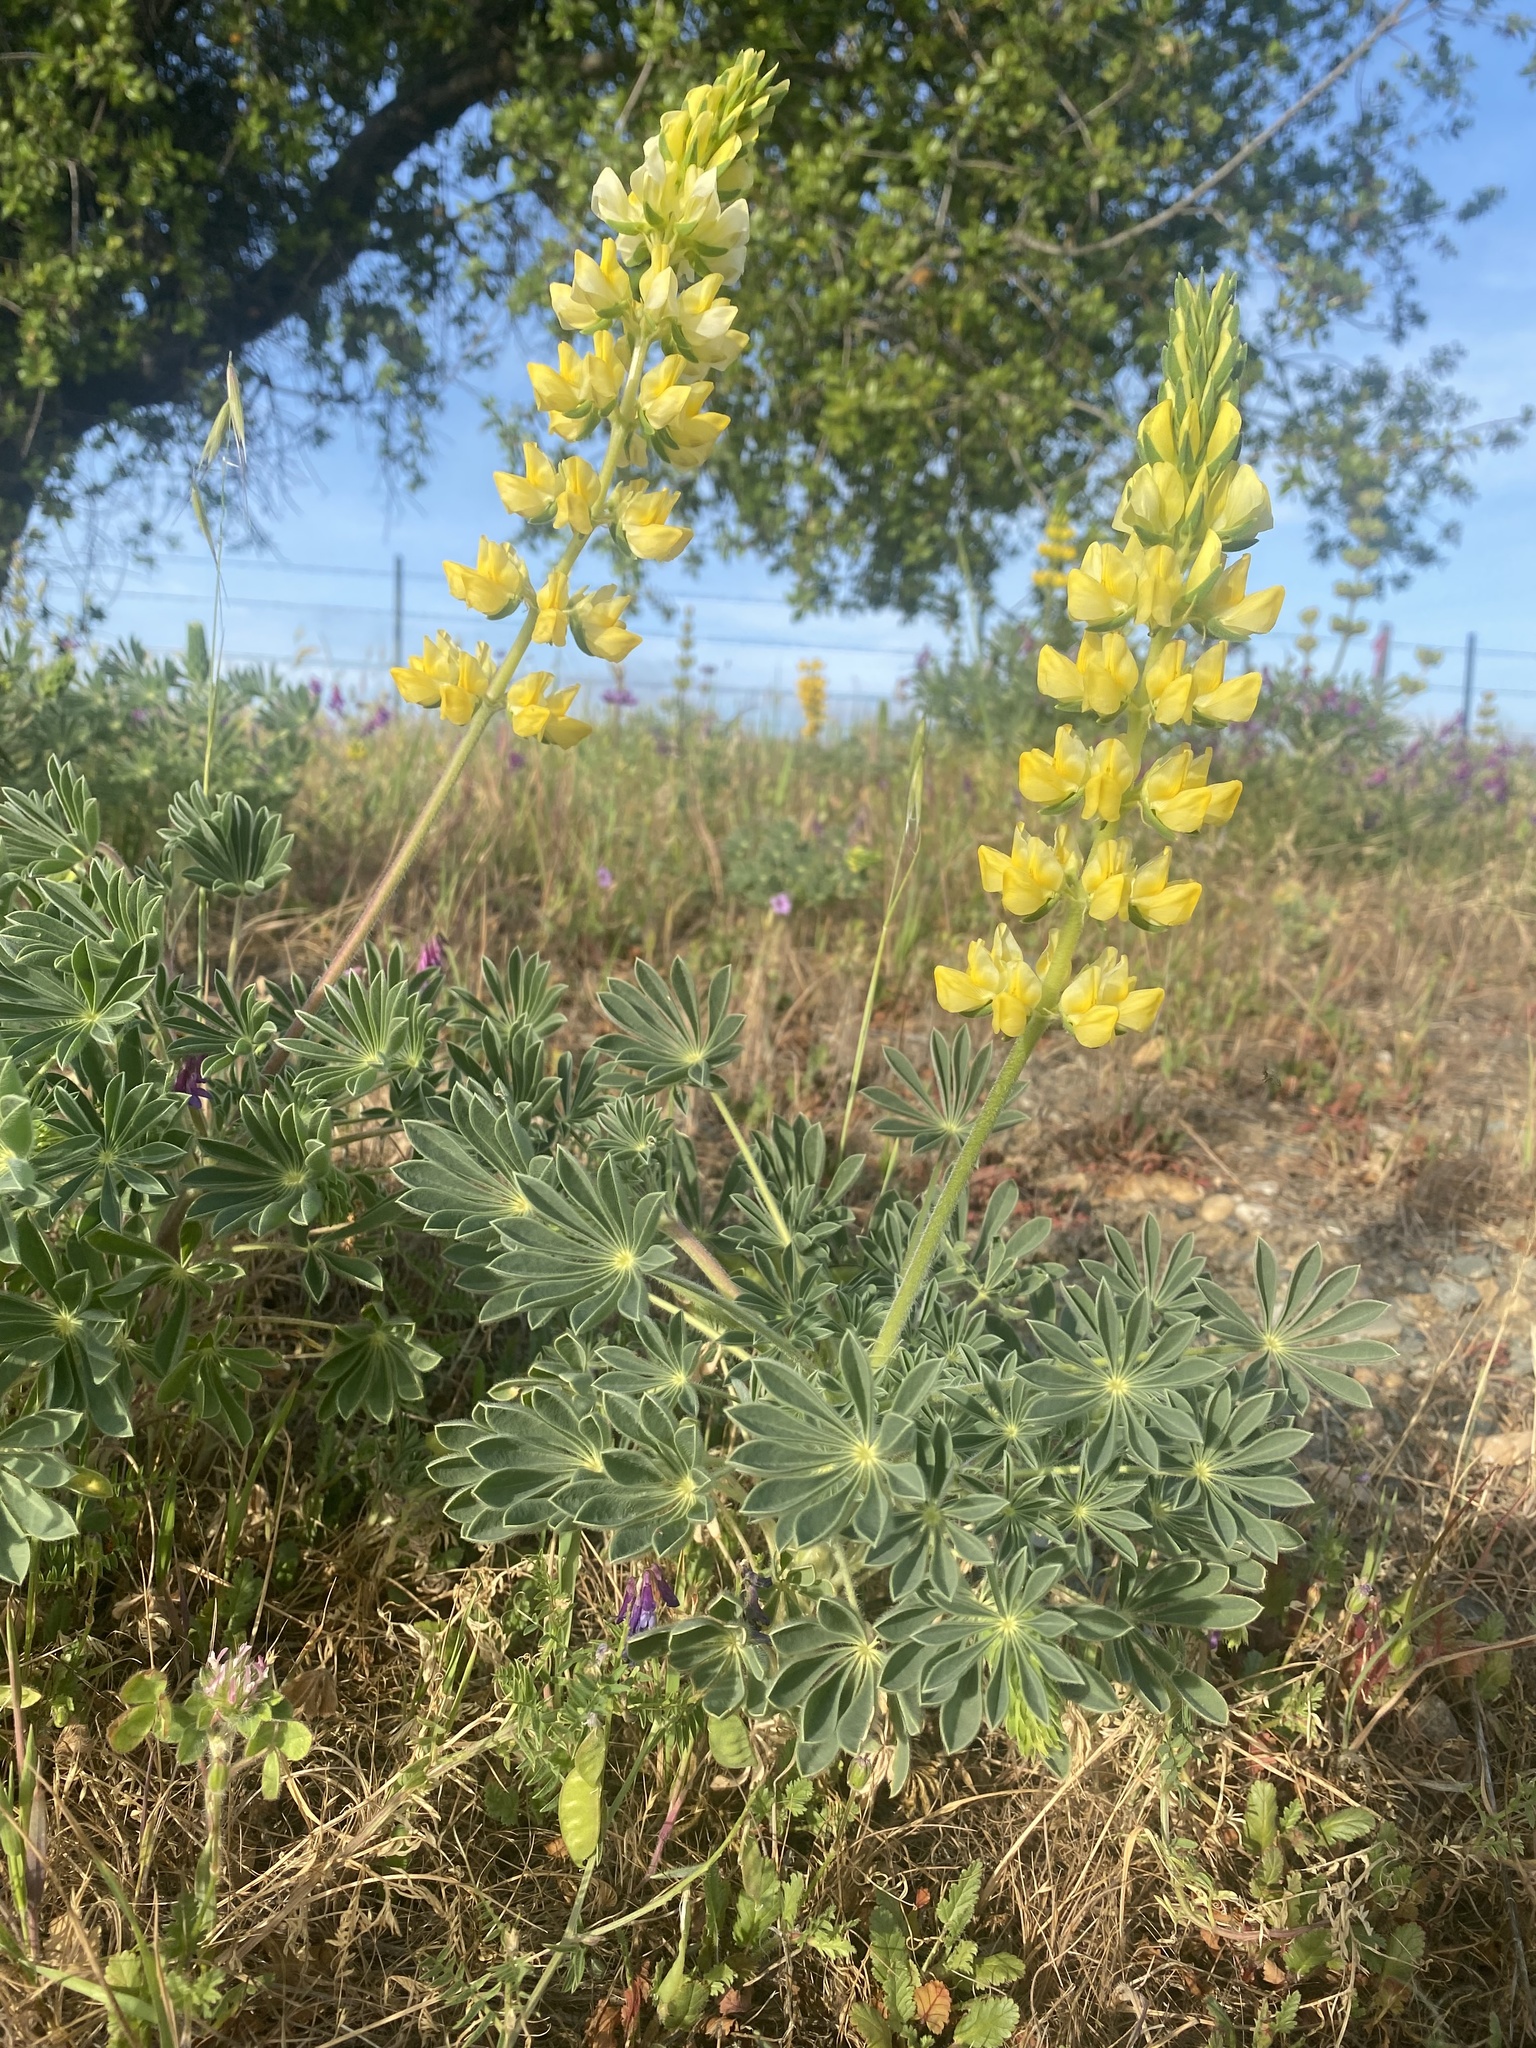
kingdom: Plantae
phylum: Tracheophyta
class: Magnoliopsida
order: Fabales
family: Fabaceae
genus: Lupinus
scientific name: Lupinus microcarpus
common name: Chick lupine
